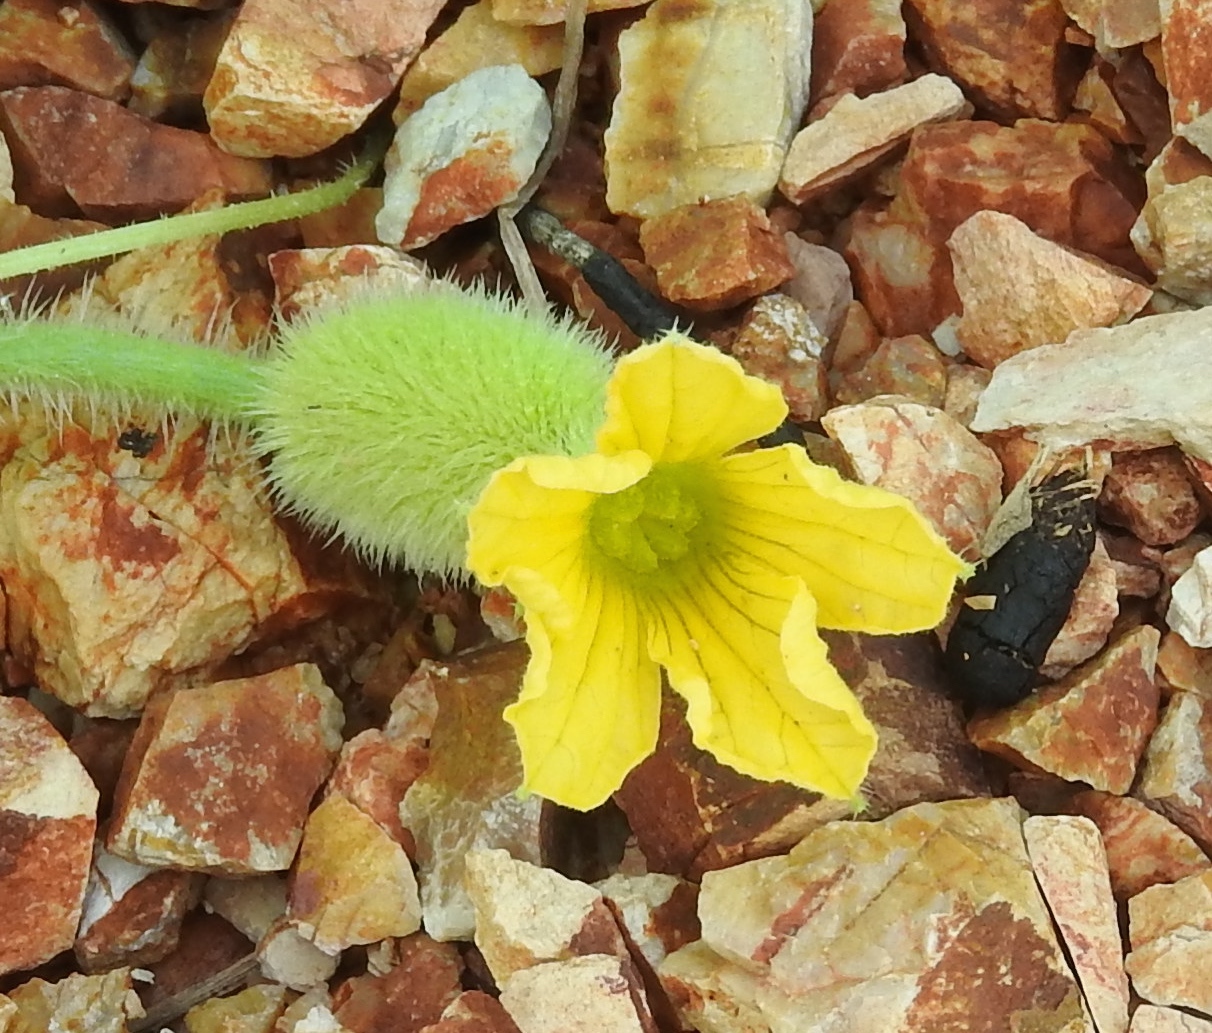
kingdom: Plantae
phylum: Tracheophyta
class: Magnoliopsida
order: Cucurbitales
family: Cucurbitaceae
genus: Cucumis
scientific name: Cucumis dipsaceus
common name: Hedgehog gourd
